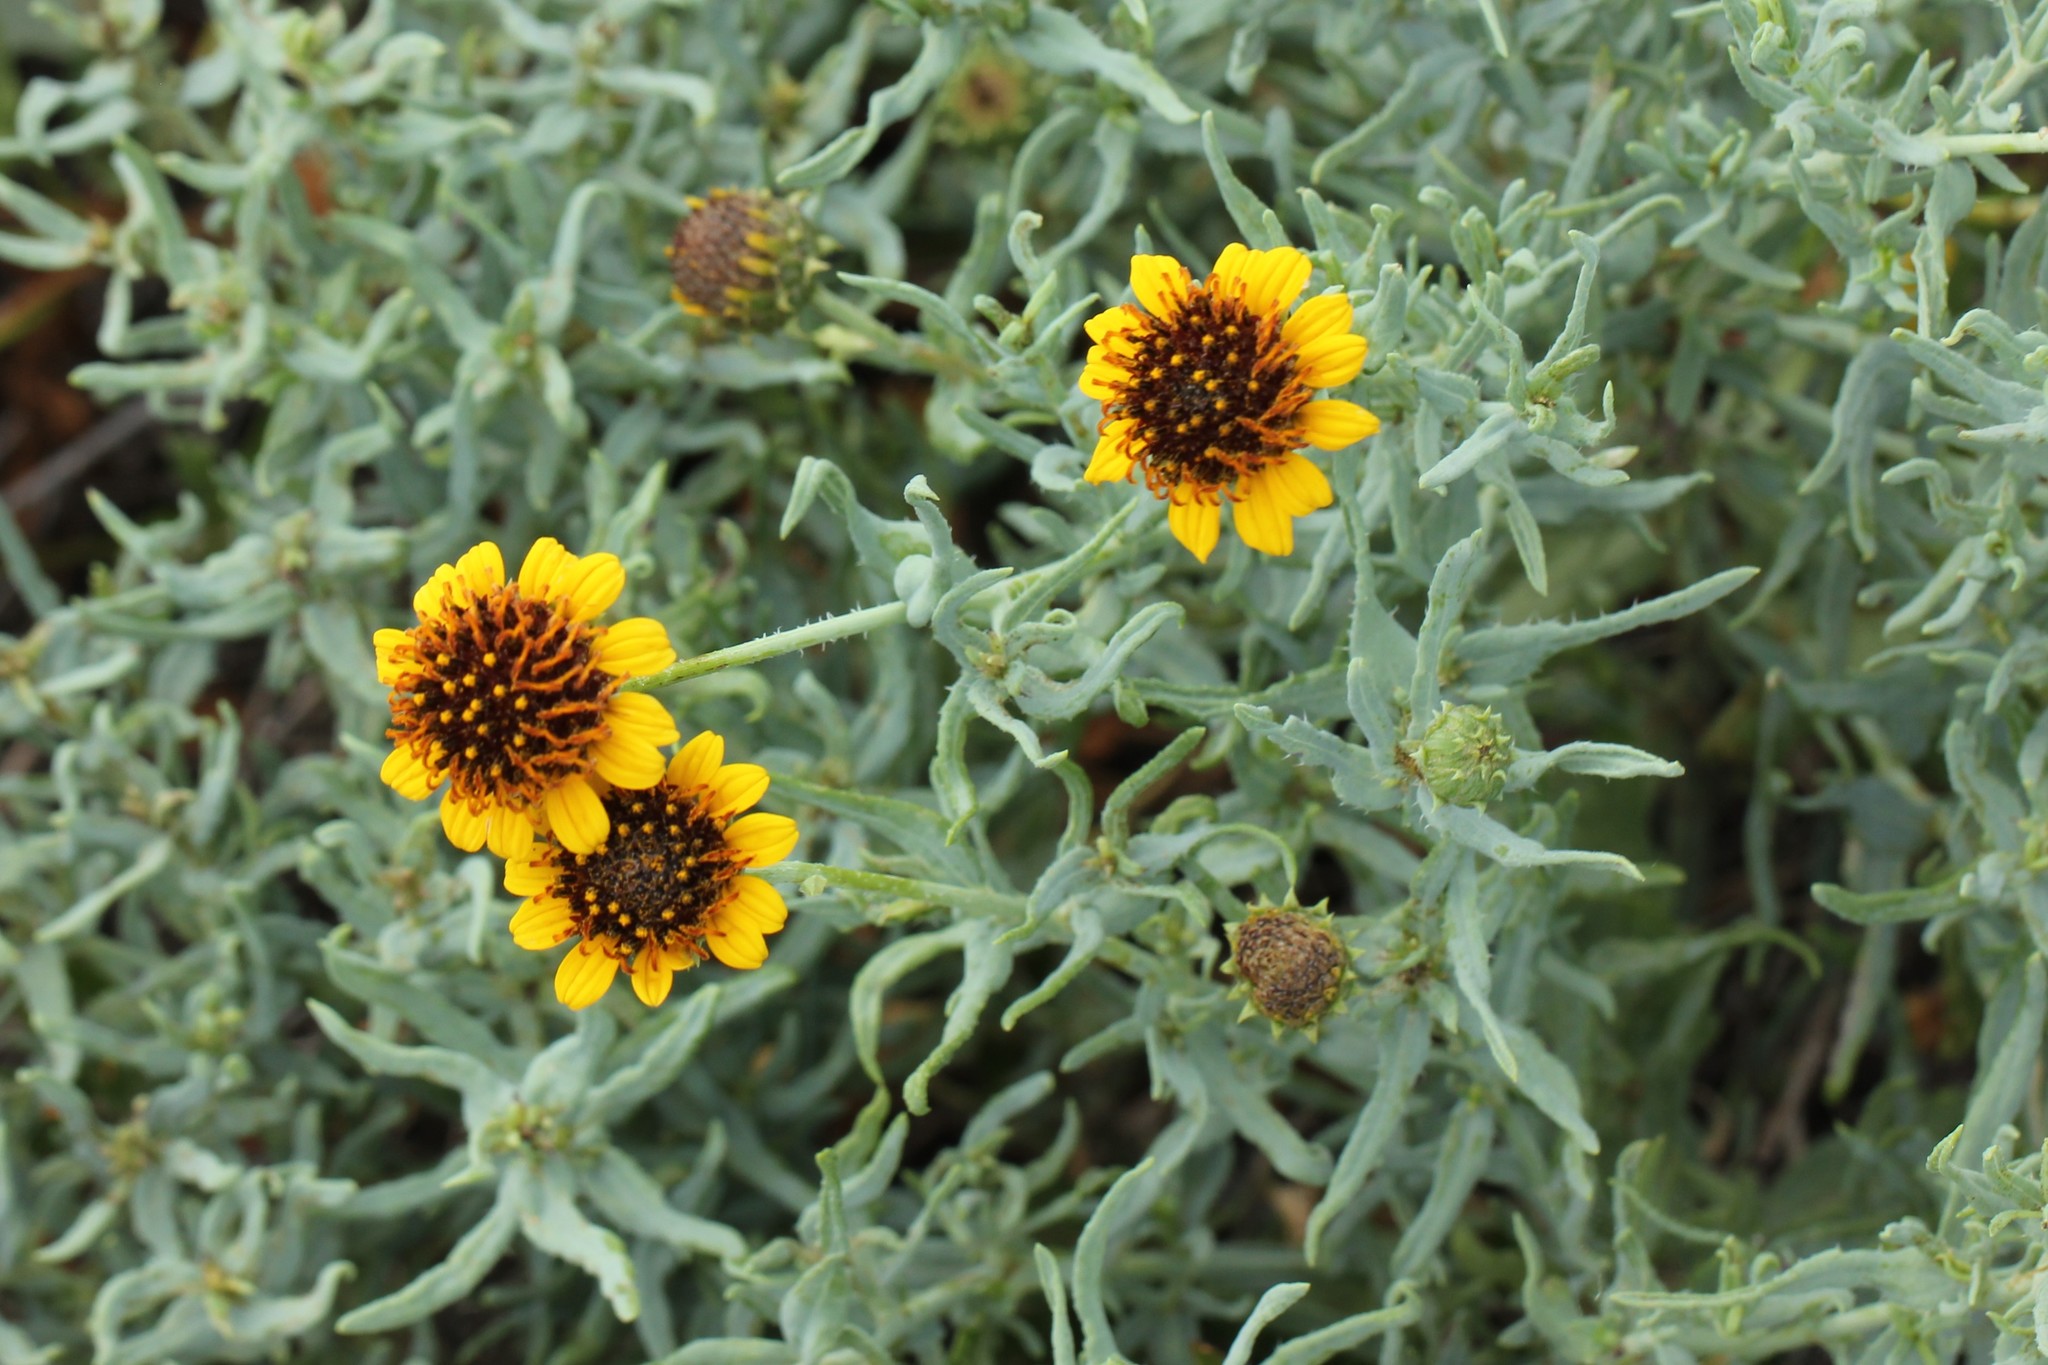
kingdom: Plantae
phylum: Tracheophyta
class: Magnoliopsida
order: Asterales
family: Asteraceae
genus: Helianthus
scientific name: Helianthus ciliaris
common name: Texas blueweed
